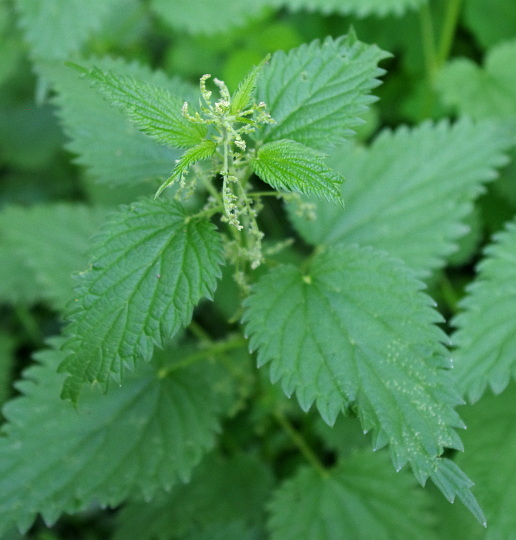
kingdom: Plantae
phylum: Tracheophyta
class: Magnoliopsida
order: Rosales
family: Urticaceae
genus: Urtica
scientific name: Urtica dioica
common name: Common nettle
